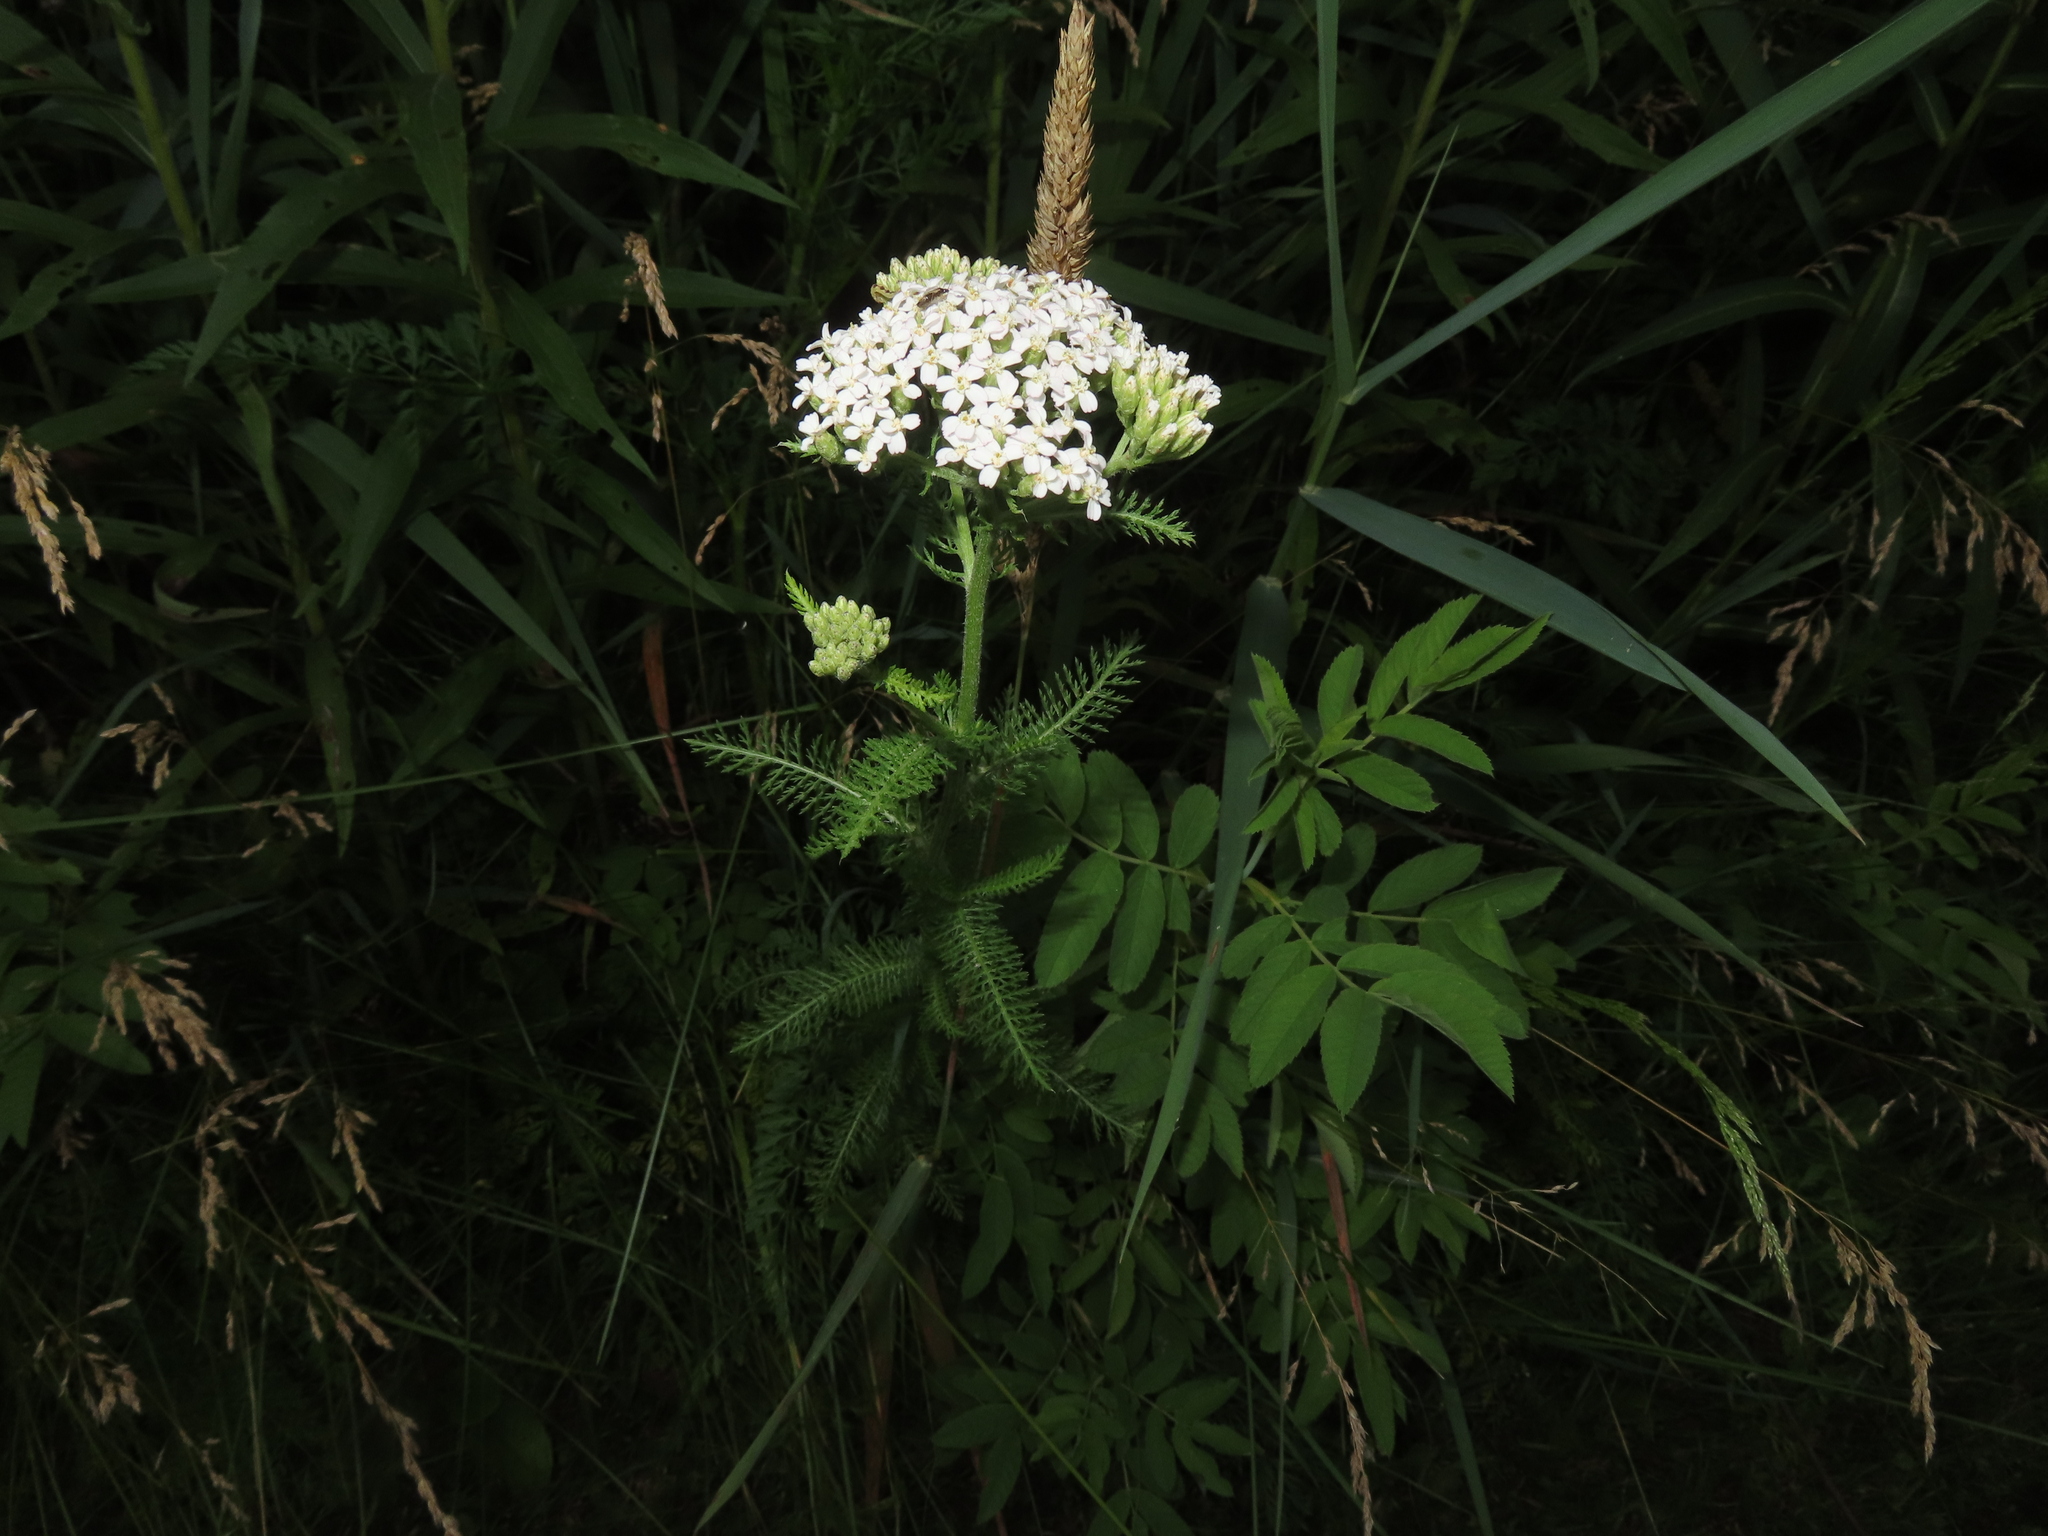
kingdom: Plantae
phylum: Tracheophyta
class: Magnoliopsida
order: Asterales
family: Asteraceae
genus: Achillea
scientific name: Achillea millefolium
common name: Yarrow
